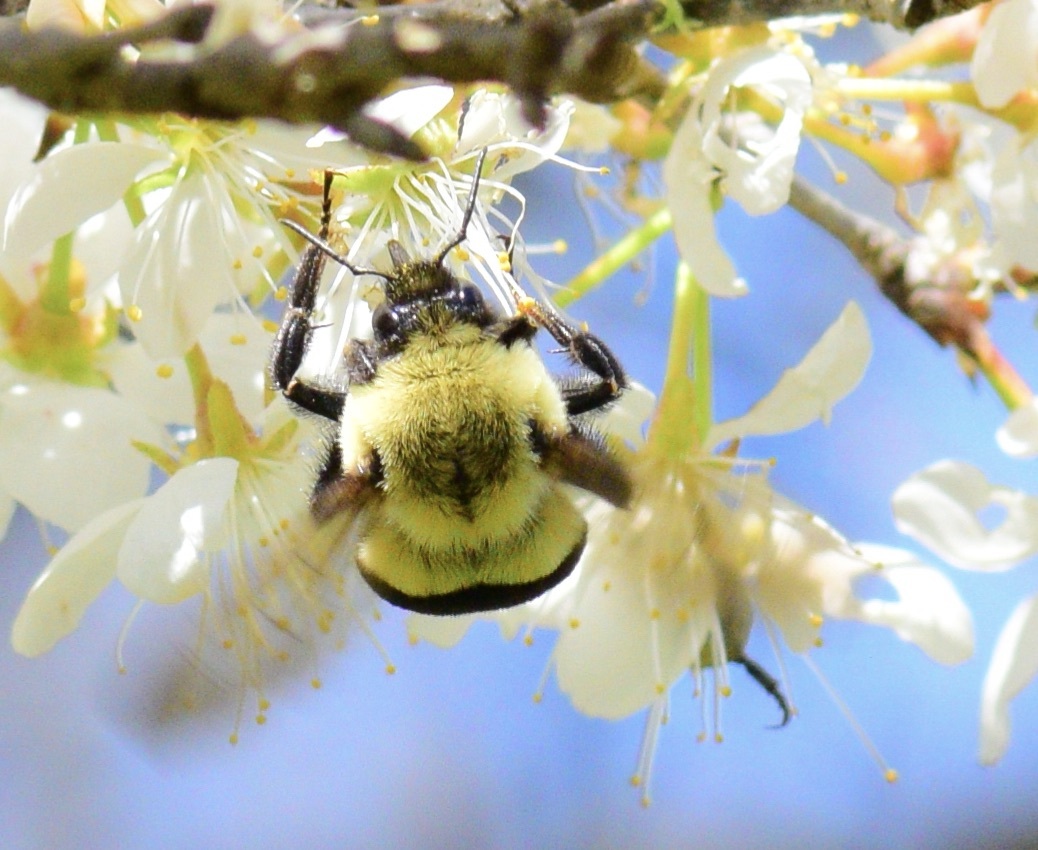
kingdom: Animalia
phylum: Arthropoda
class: Insecta
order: Hymenoptera
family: Apidae
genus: Bombus
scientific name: Bombus impatiens
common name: Common eastern bumble bee
